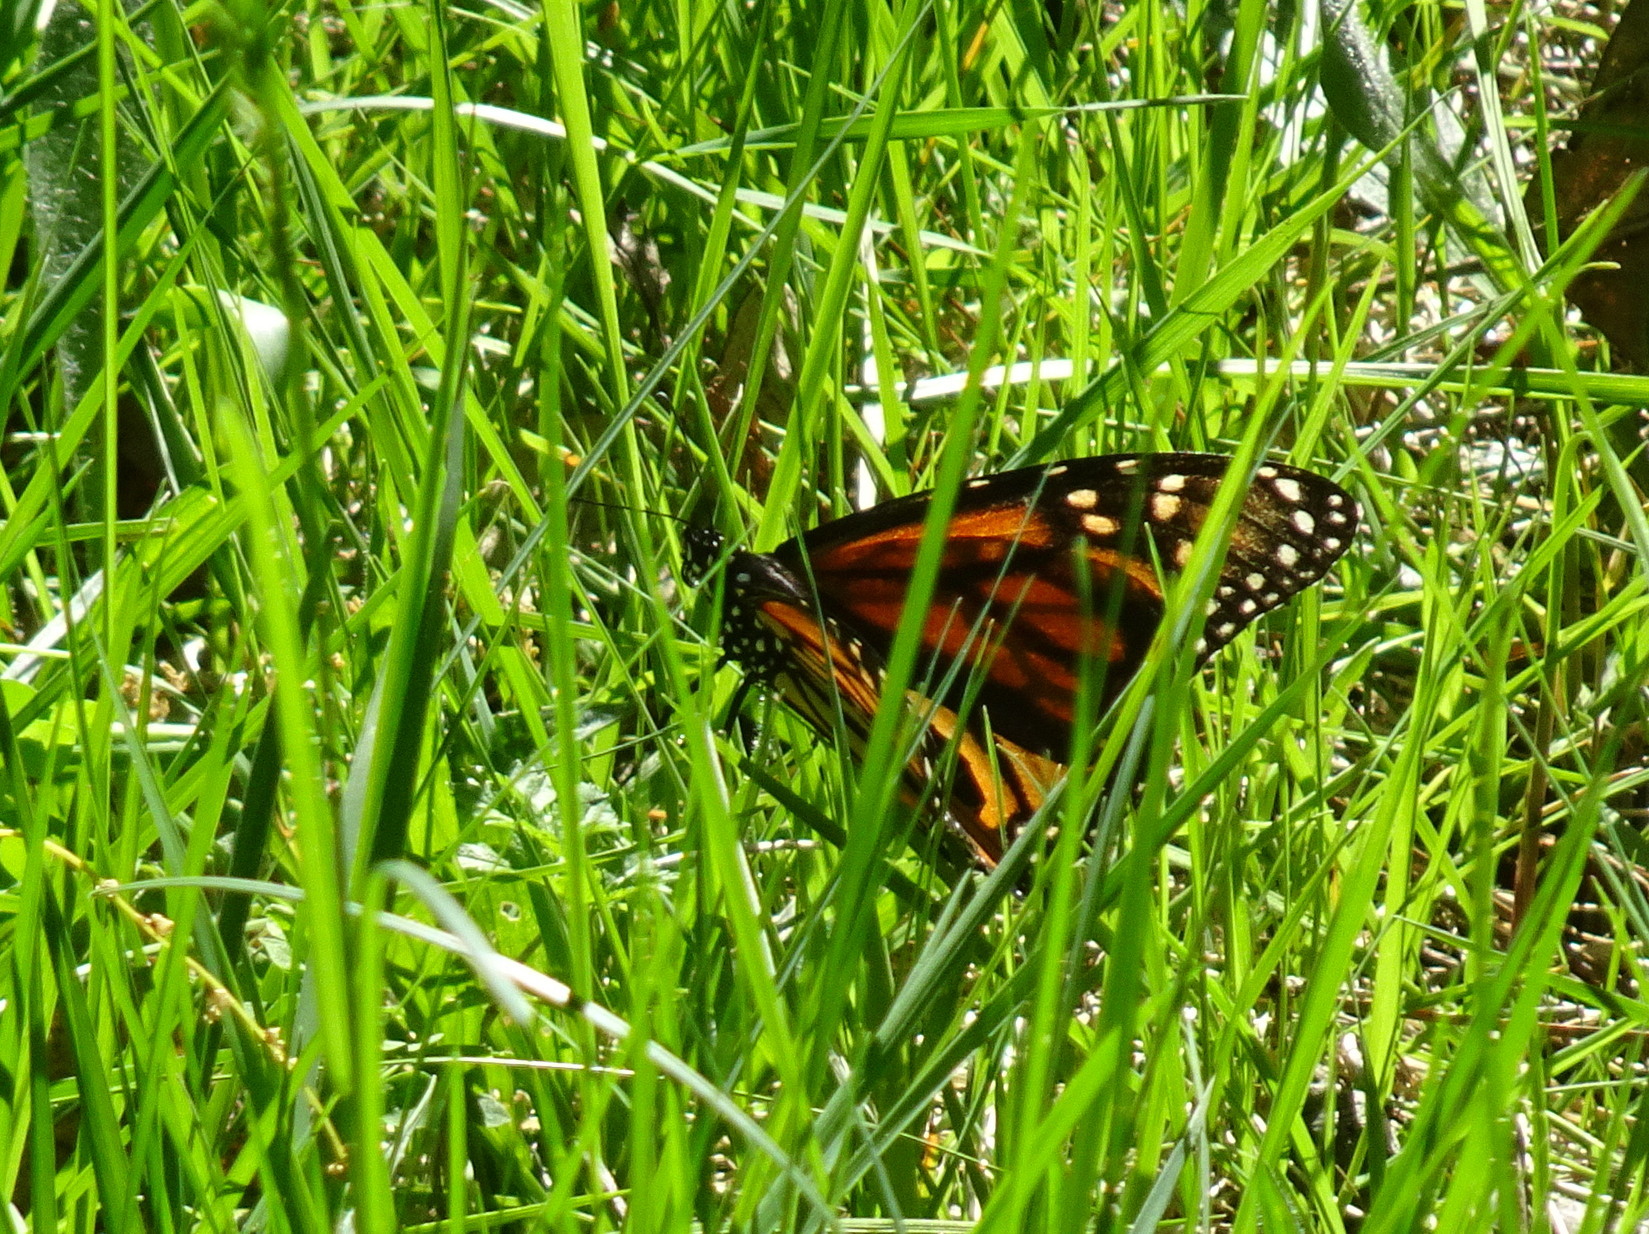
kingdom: Animalia
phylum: Arthropoda
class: Insecta
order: Lepidoptera
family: Nymphalidae
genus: Danaus
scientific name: Danaus plexippus
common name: Monarch
